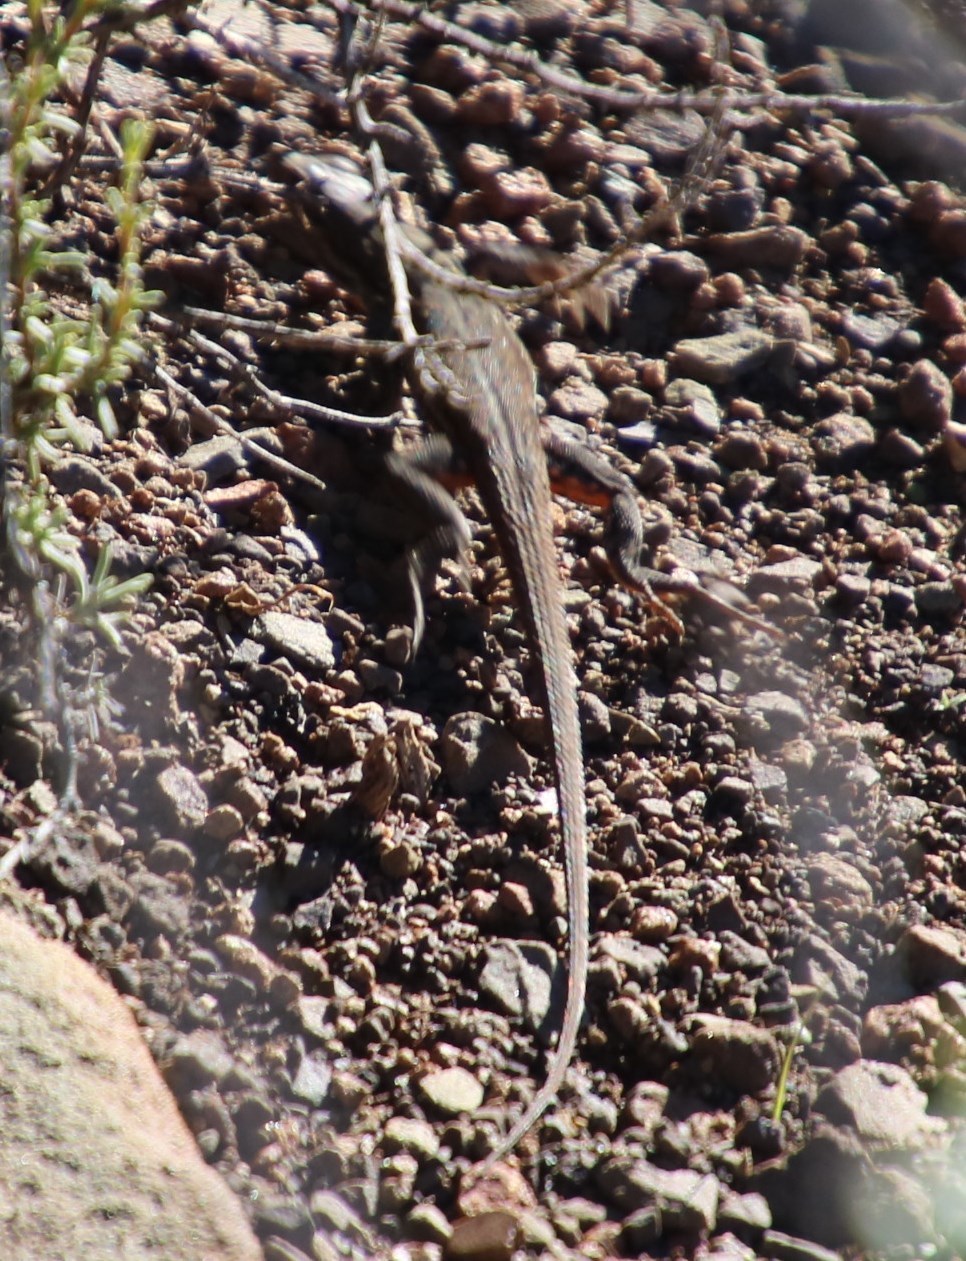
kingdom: Animalia
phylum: Chordata
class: Squamata
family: Lacertidae
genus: Pedioplanis
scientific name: Pedioplanis lineoocellata
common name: Spotted sand lizard
